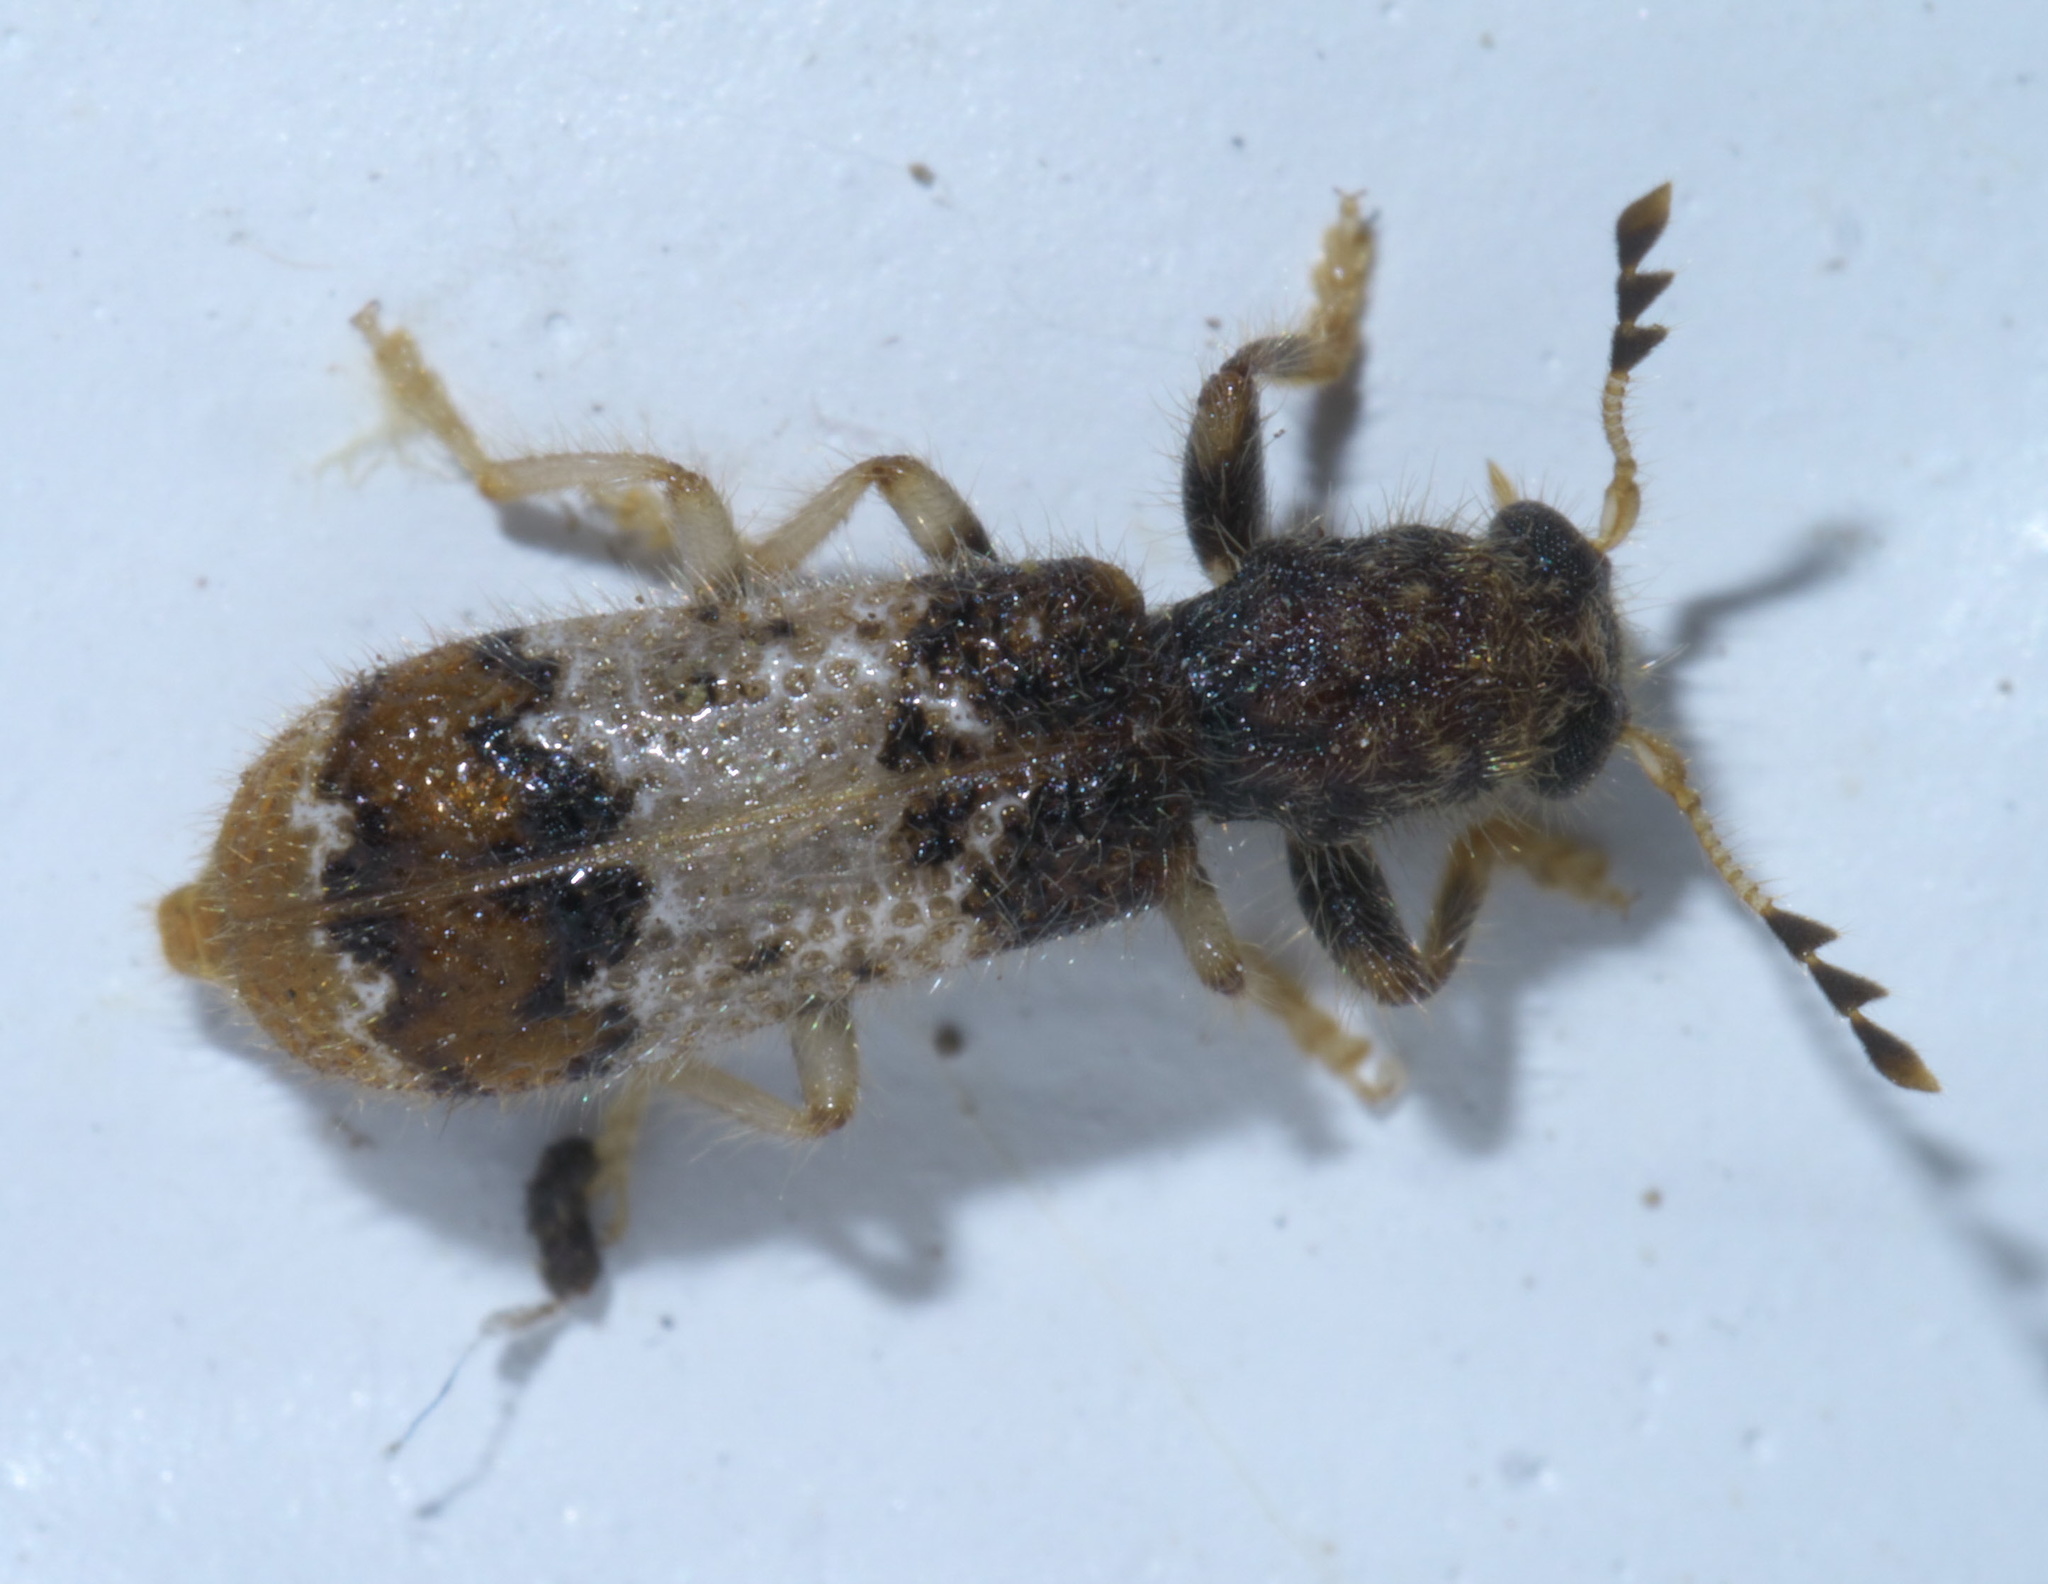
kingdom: Animalia
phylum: Arthropoda
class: Insecta
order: Coleoptera
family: Cleridae
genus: Pelonium
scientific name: Pelonium leucophaeum
